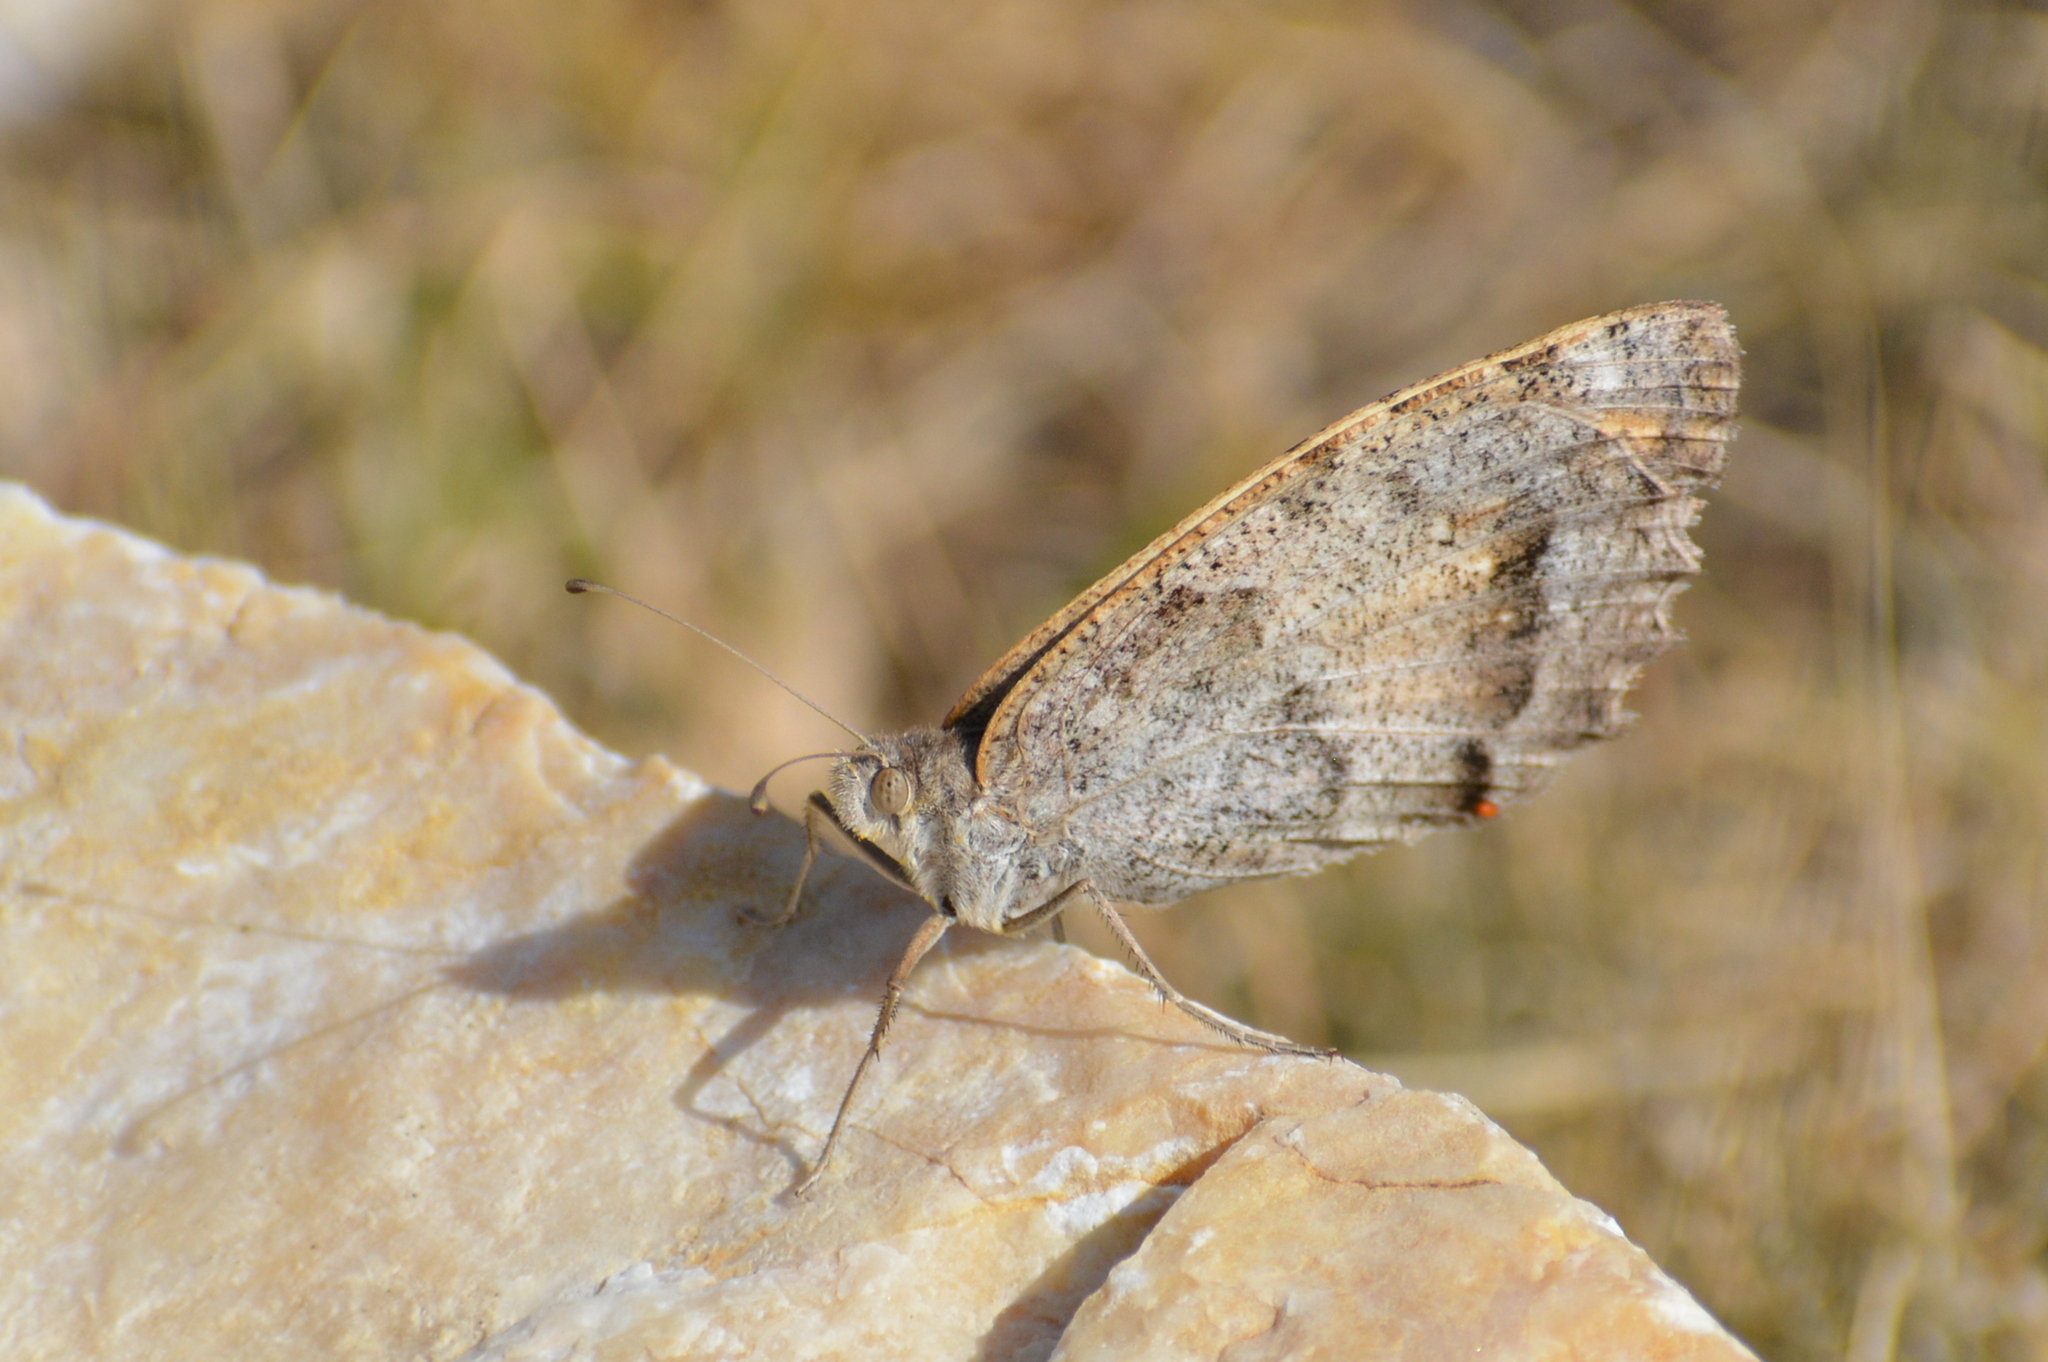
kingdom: Animalia
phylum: Arthropoda
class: Insecta
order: Lepidoptera
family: Nymphalidae
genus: Satyrus
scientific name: Satyrus briseis
